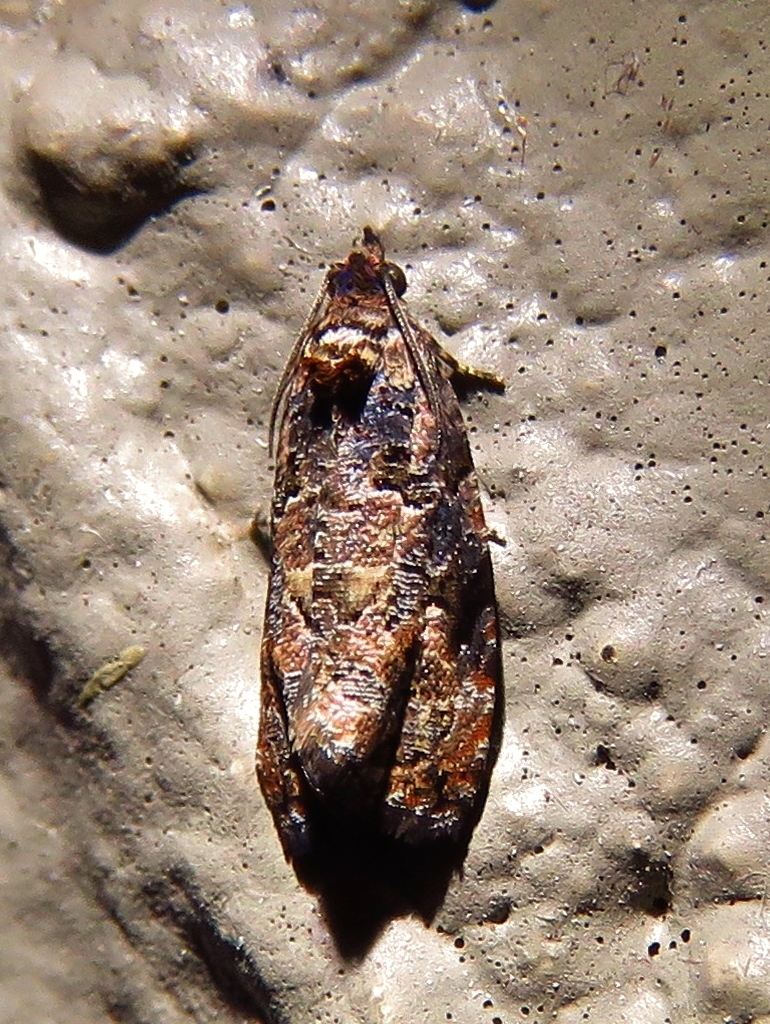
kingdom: Animalia
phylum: Arthropoda
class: Insecta
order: Lepidoptera
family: Tortricidae
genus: Endothenia
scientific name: Endothenia hebesana
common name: Verbena bud moth
